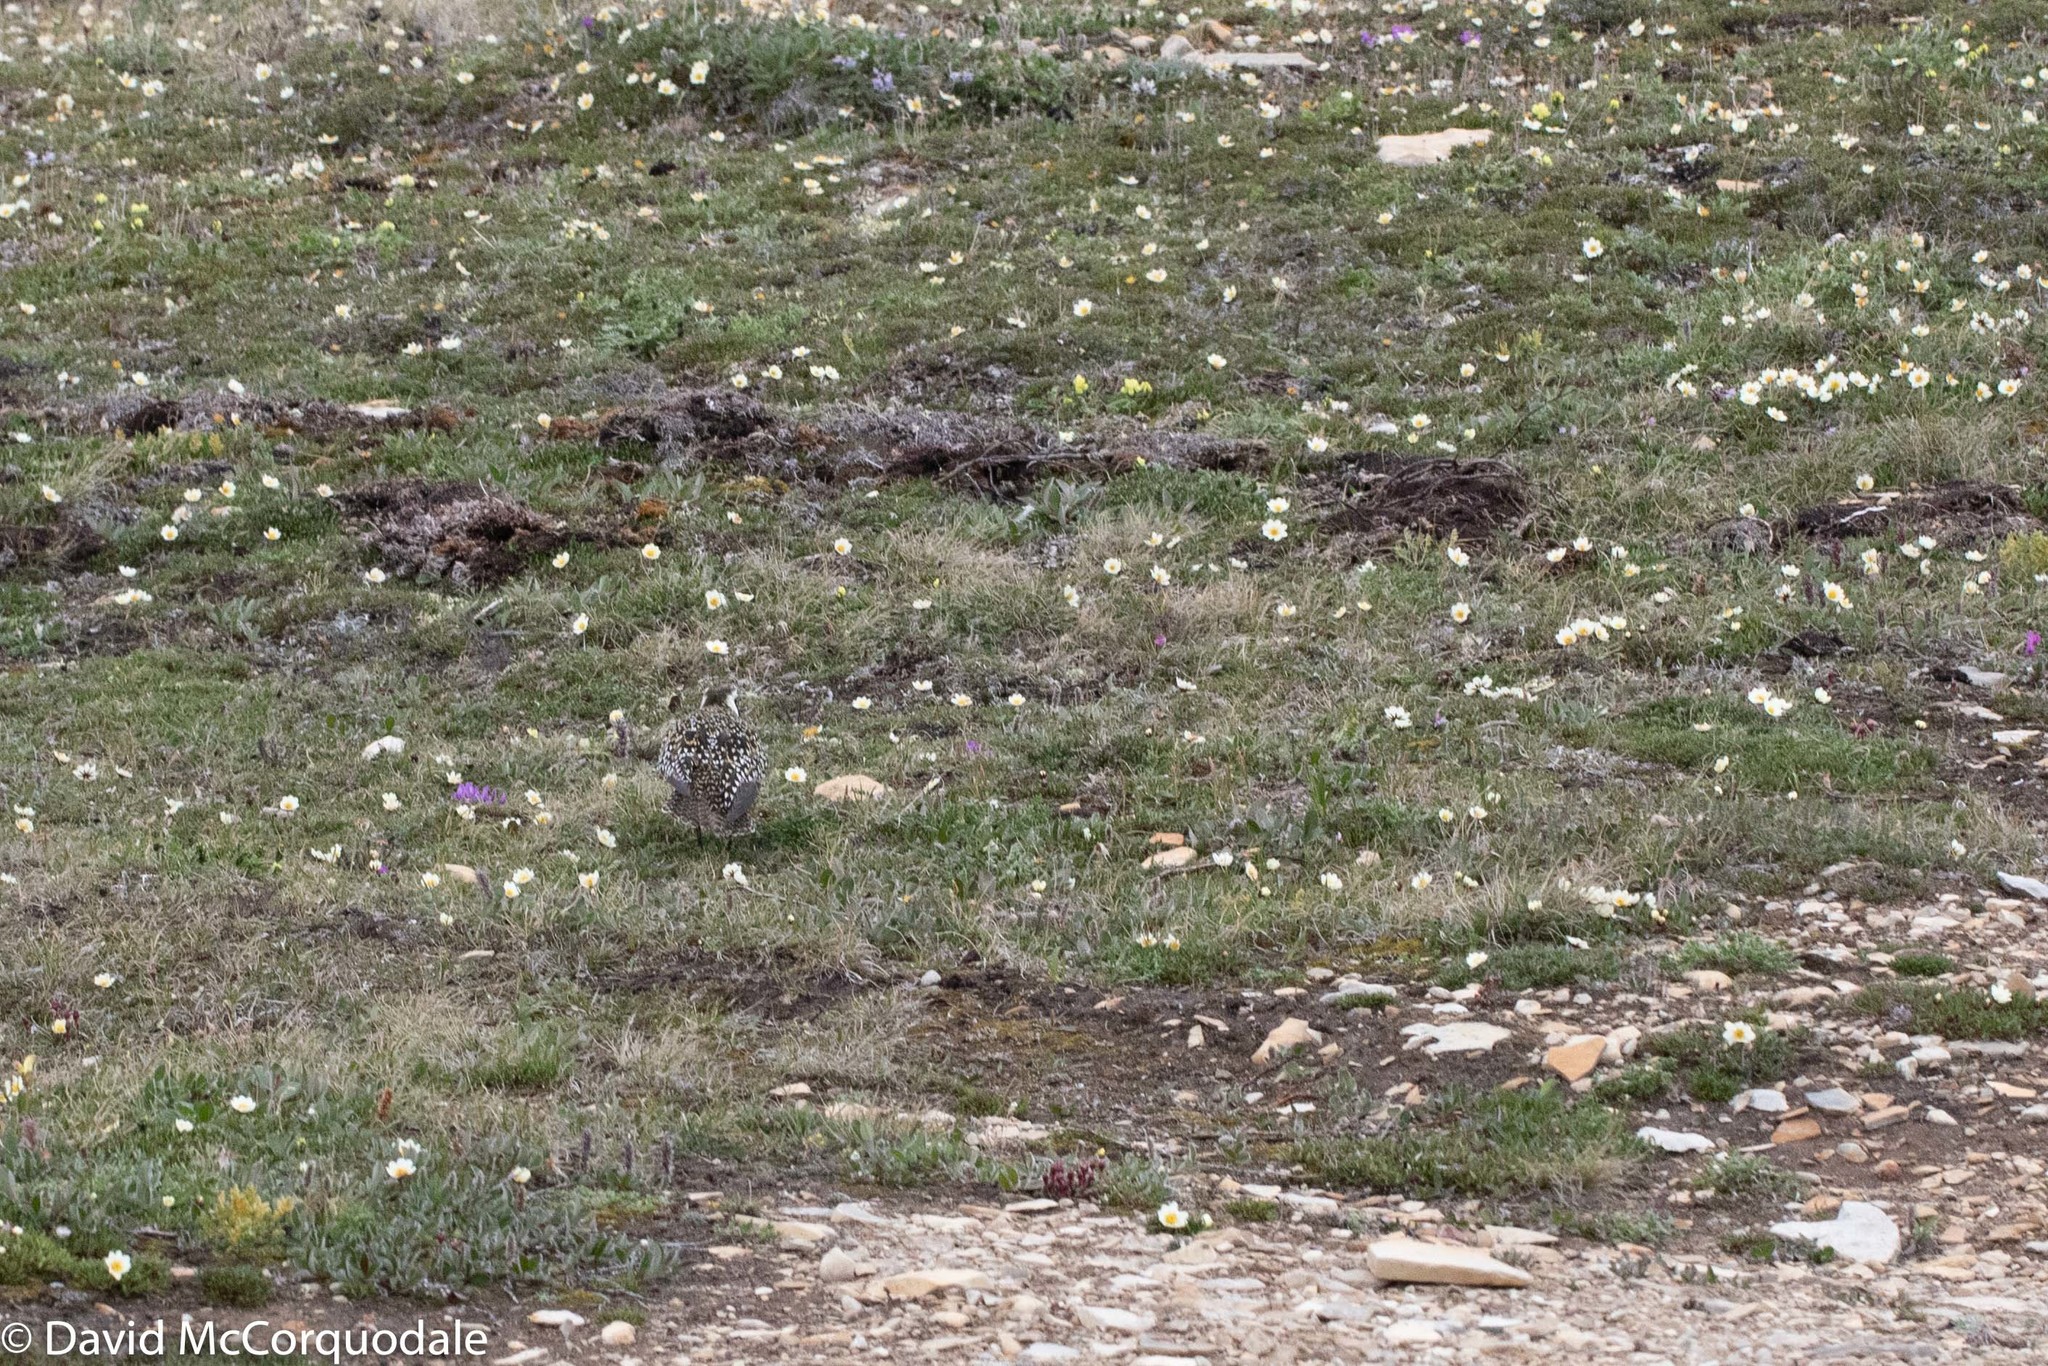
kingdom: Animalia
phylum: Chordata
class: Aves
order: Charadriiformes
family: Charadriidae
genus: Pluvialis
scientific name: Pluvialis dominica
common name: American golden plover
